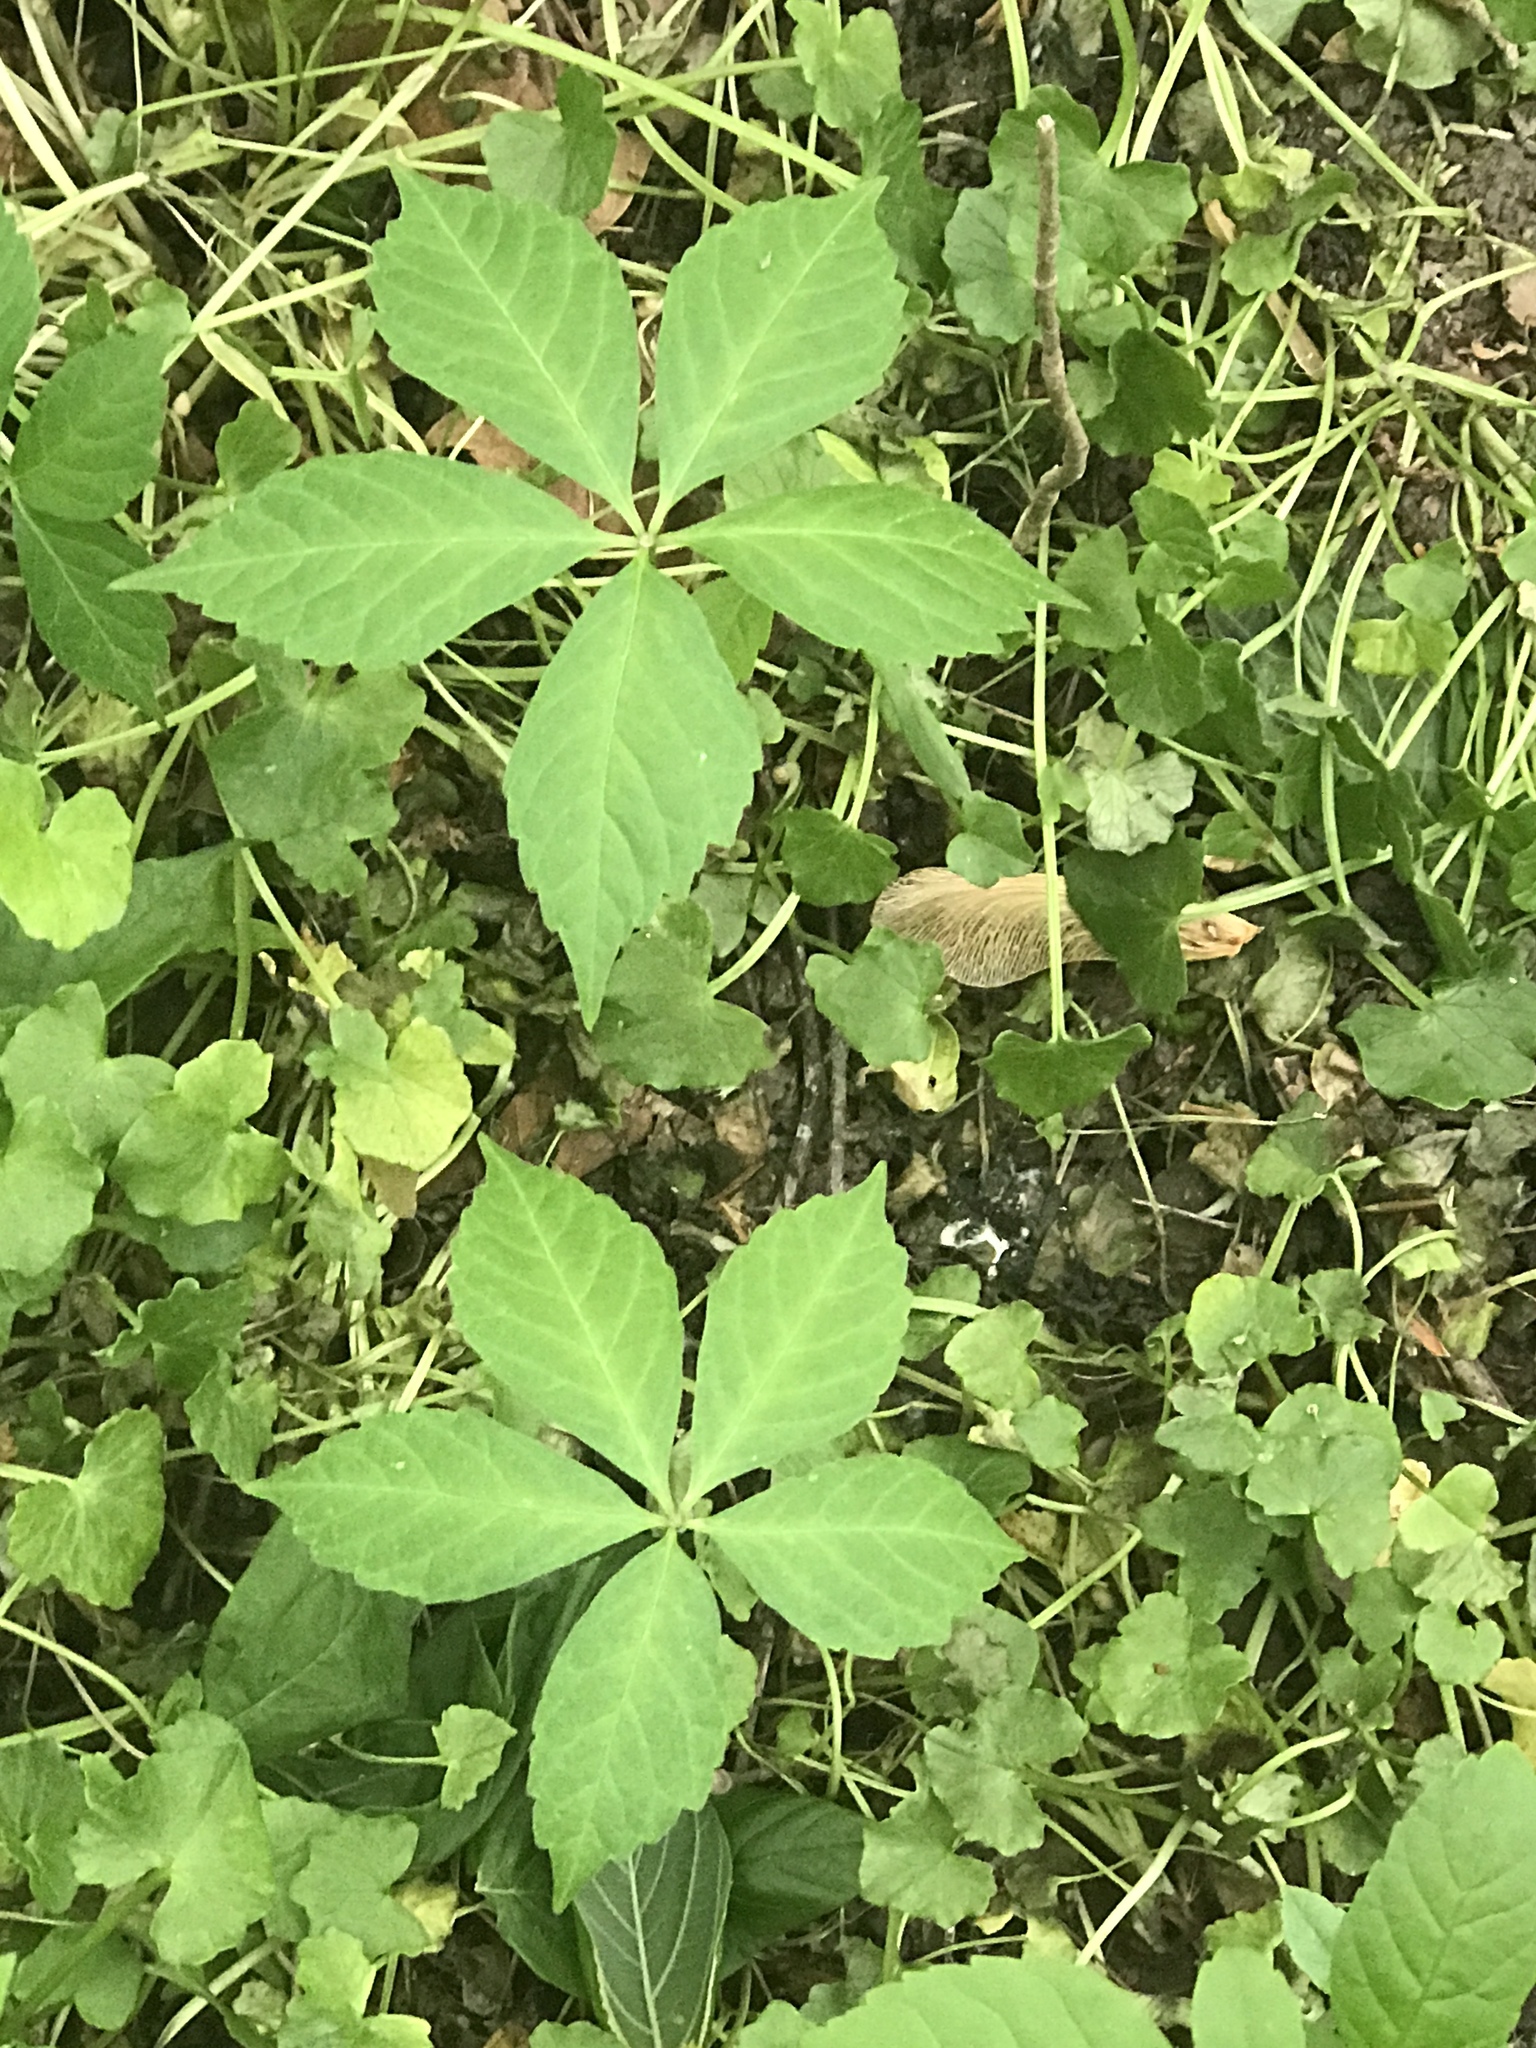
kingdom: Plantae
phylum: Tracheophyta
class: Magnoliopsida
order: Vitales
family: Vitaceae
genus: Parthenocissus
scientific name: Parthenocissus quinquefolia
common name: Virginia-creeper
